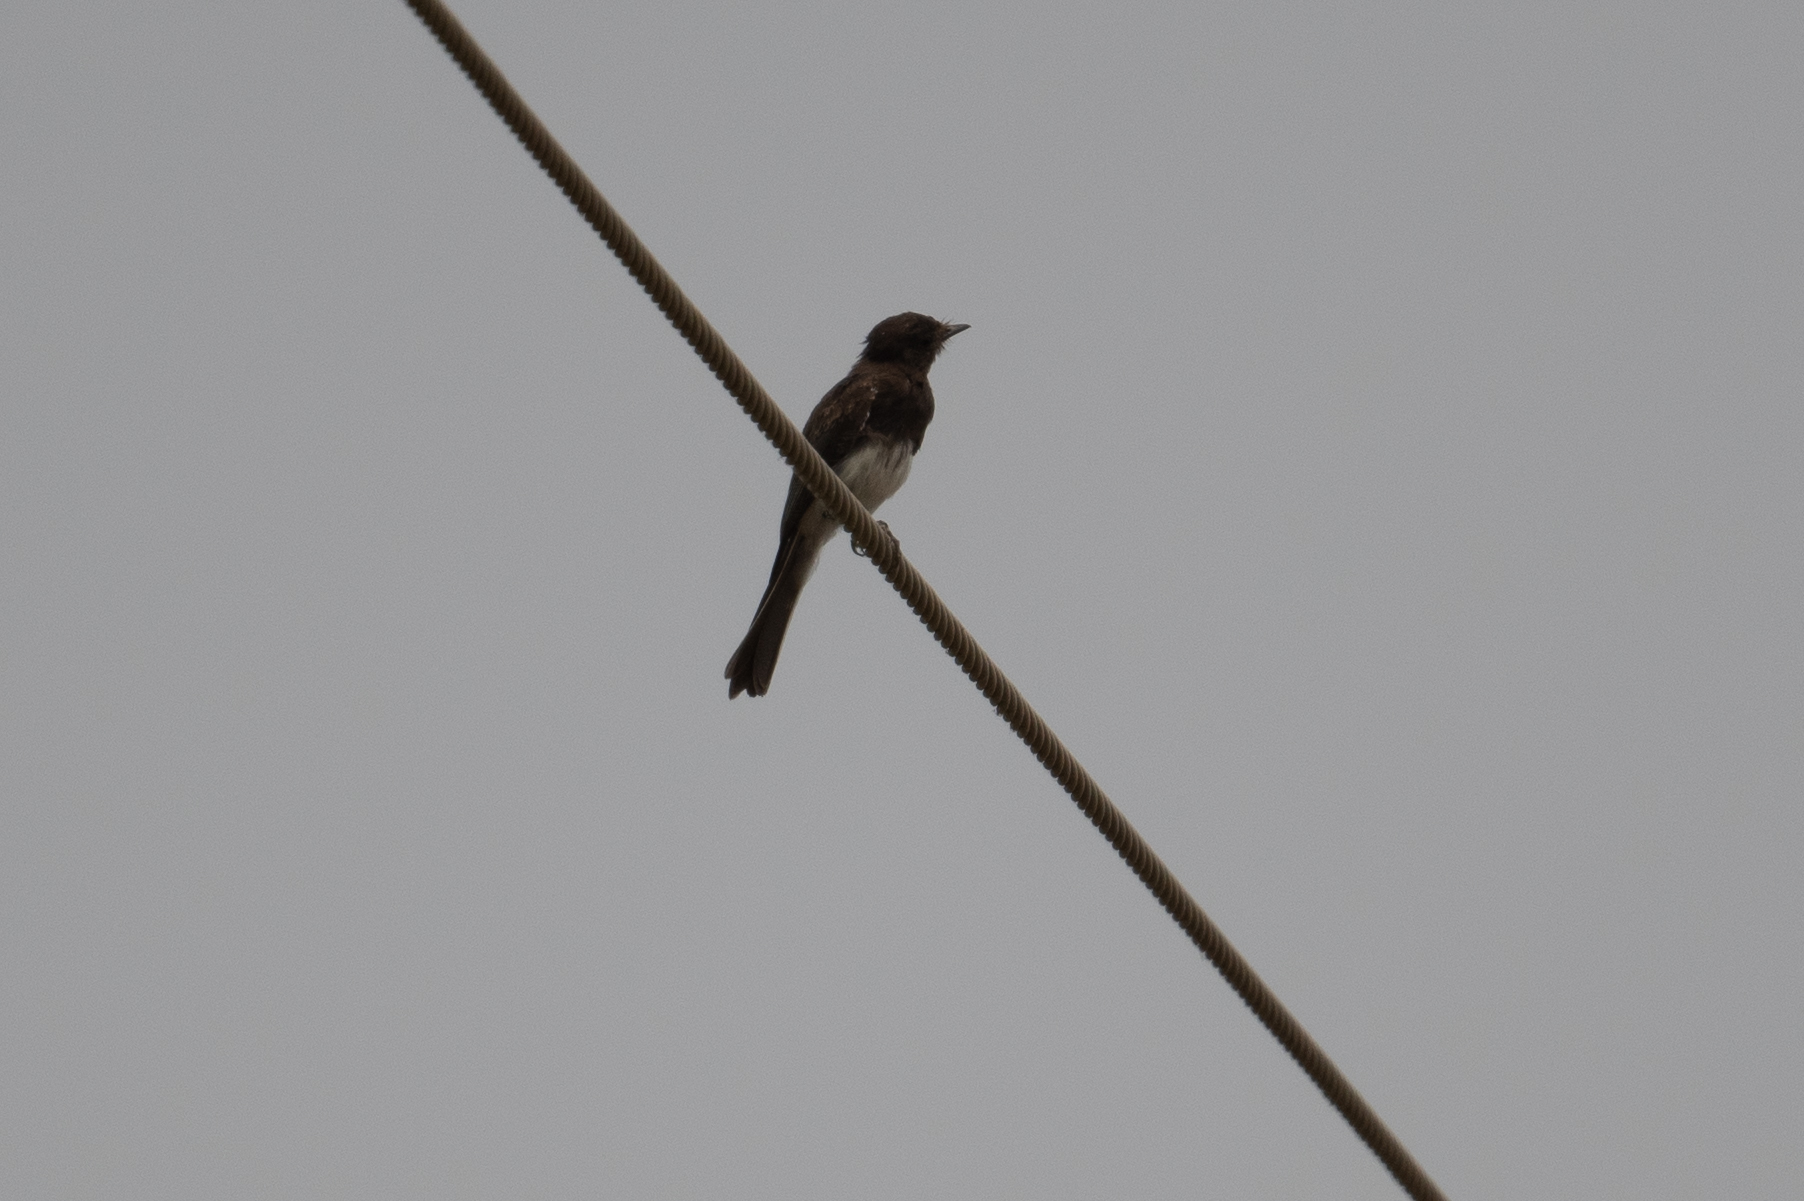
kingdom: Animalia
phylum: Chordata
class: Aves
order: Passeriformes
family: Tyrannidae
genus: Sayornis
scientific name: Sayornis nigricans
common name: Black phoebe
